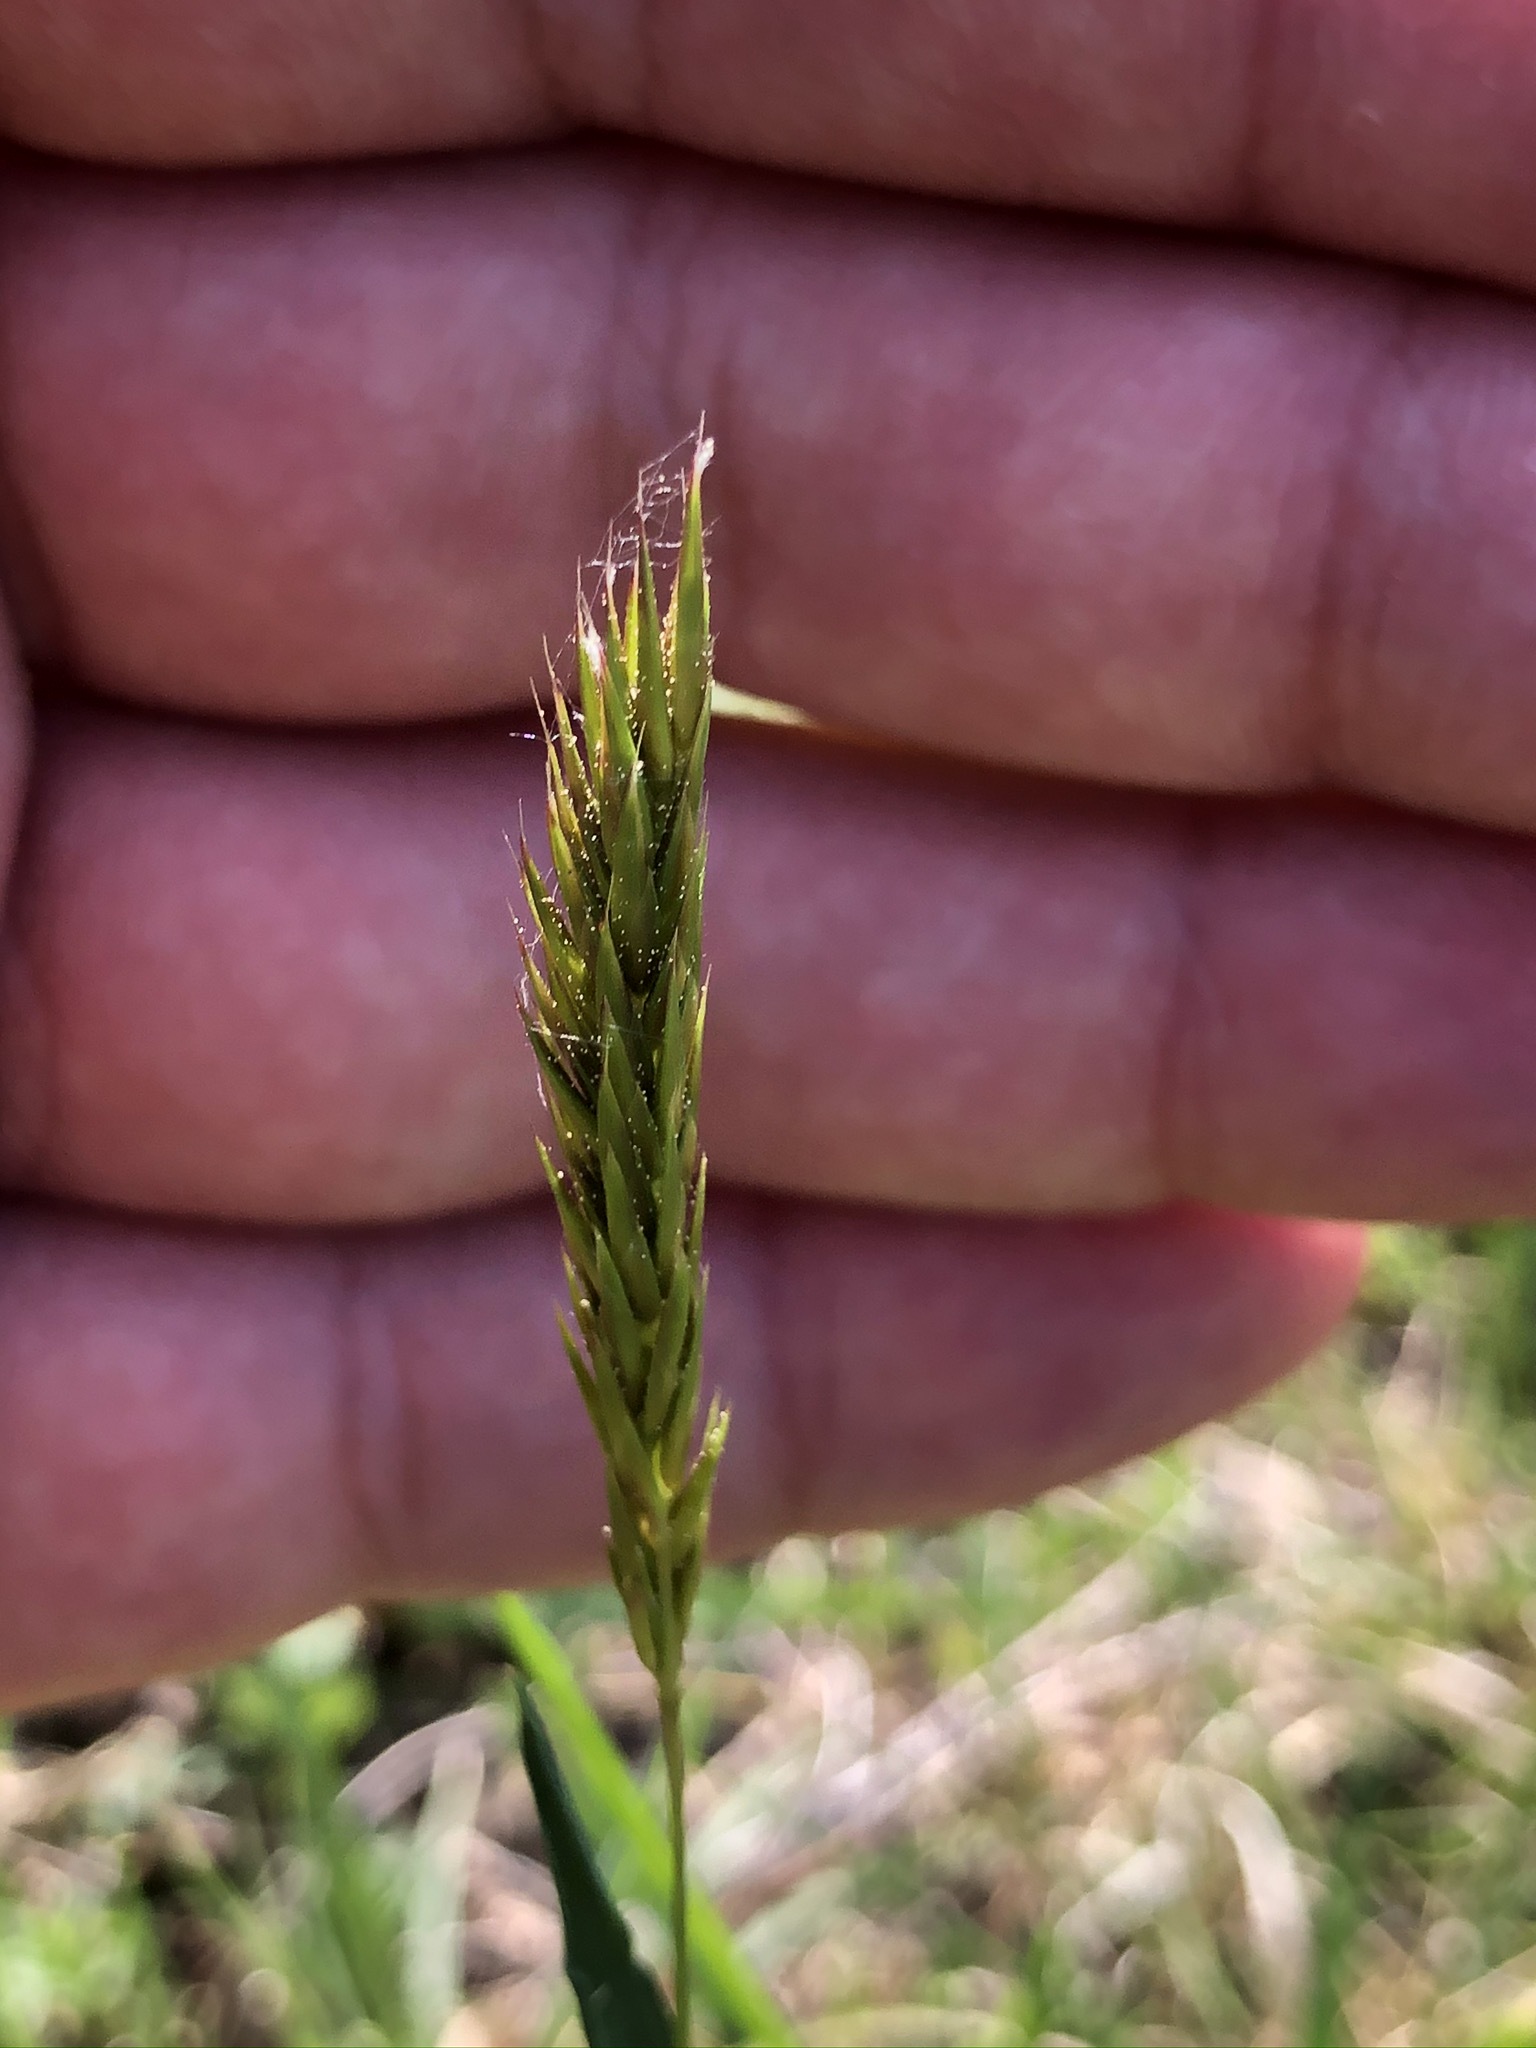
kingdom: Plantae
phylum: Tracheophyta
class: Liliopsida
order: Poales
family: Poaceae
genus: Anthoxanthum
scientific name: Anthoxanthum odoratum
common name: Sweet vernalgrass
